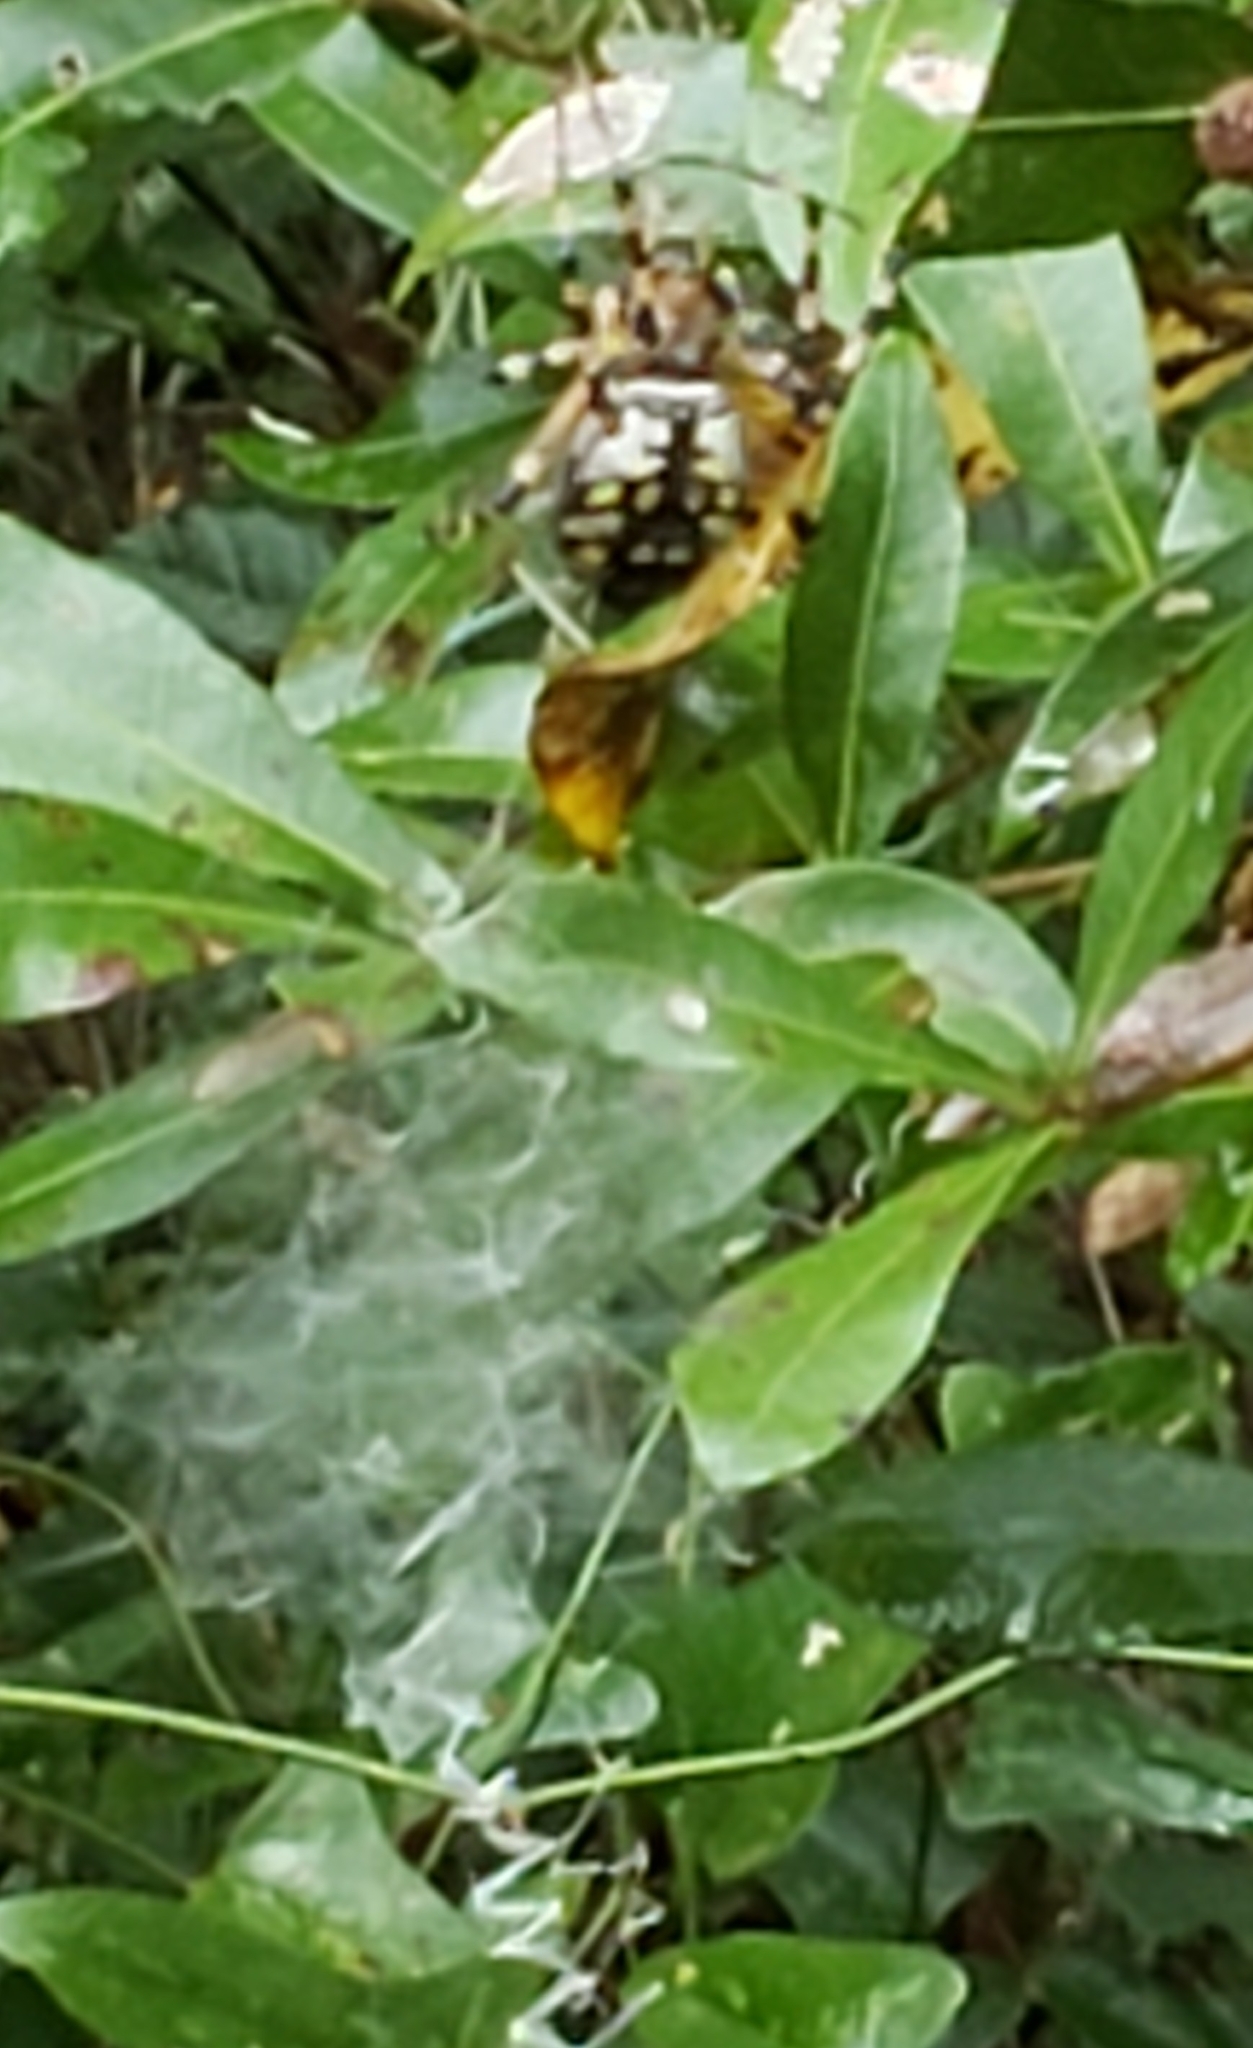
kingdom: Animalia
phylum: Arthropoda
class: Arachnida
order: Araneae
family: Araneidae
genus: Argiope
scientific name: Argiope aurantia
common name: Orb weavers
